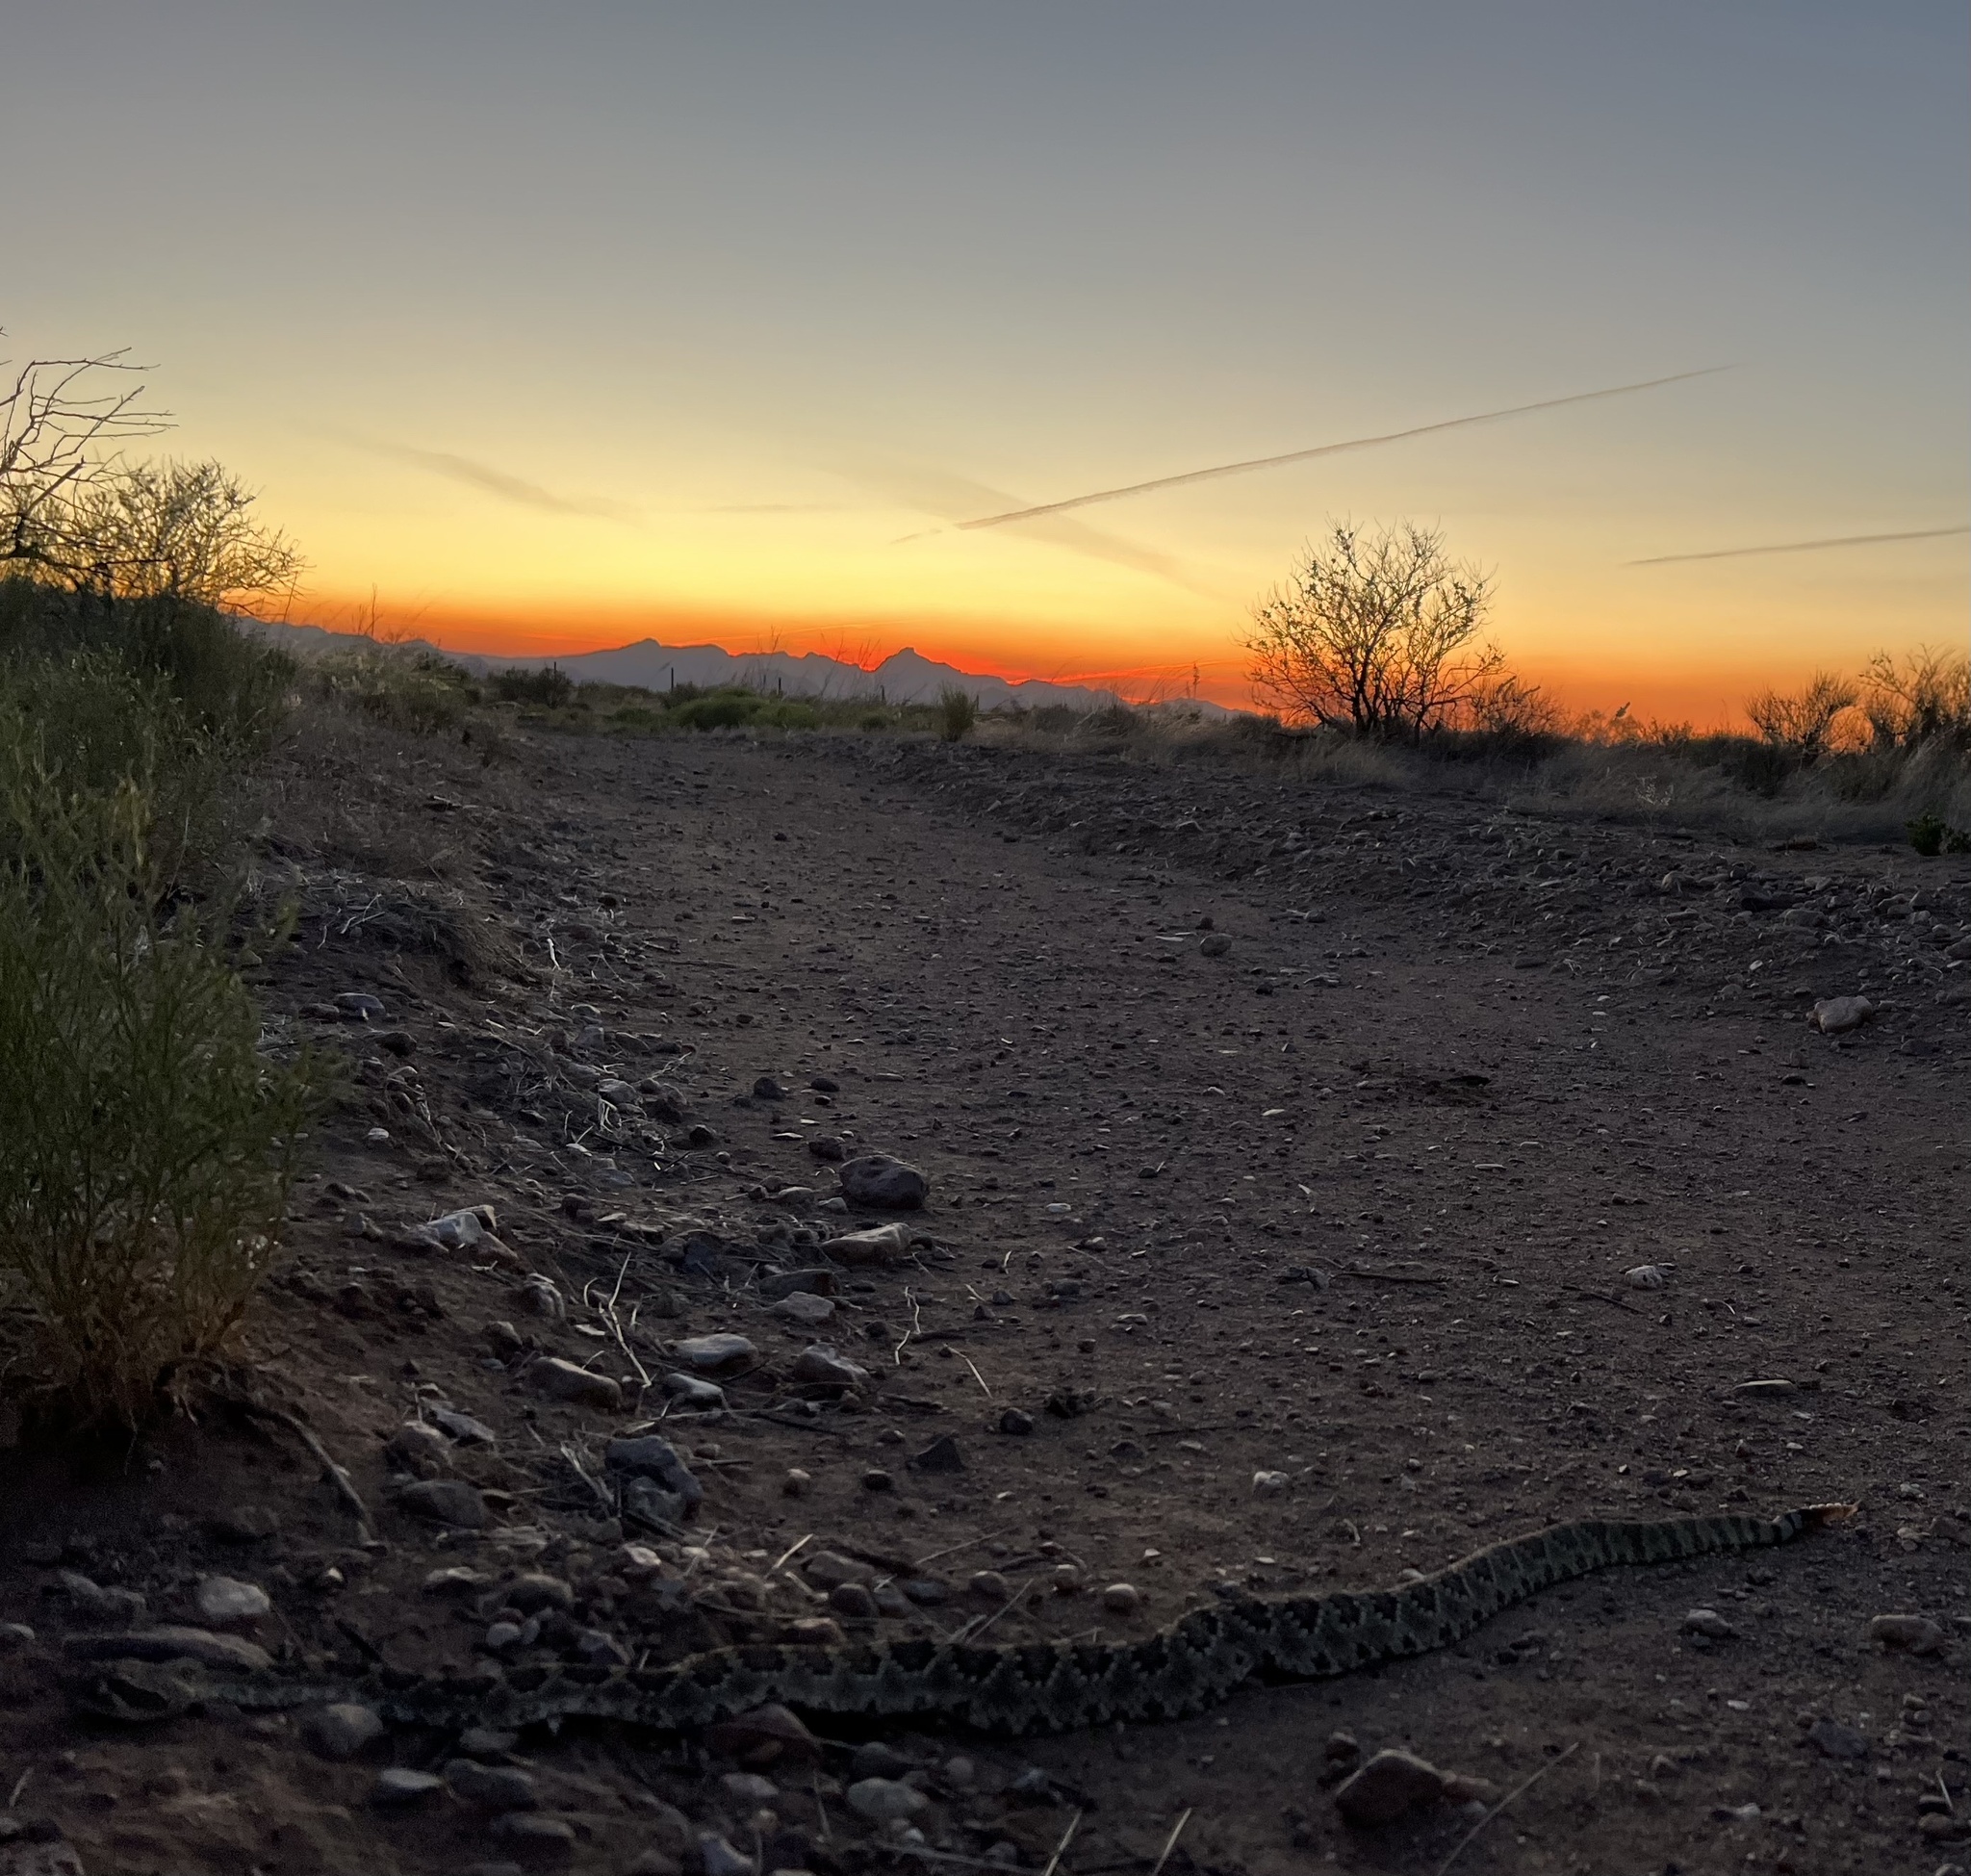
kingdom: Animalia
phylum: Chordata
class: Squamata
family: Viperidae
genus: Crotalus
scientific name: Crotalus scutulatus
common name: Scutulatus
